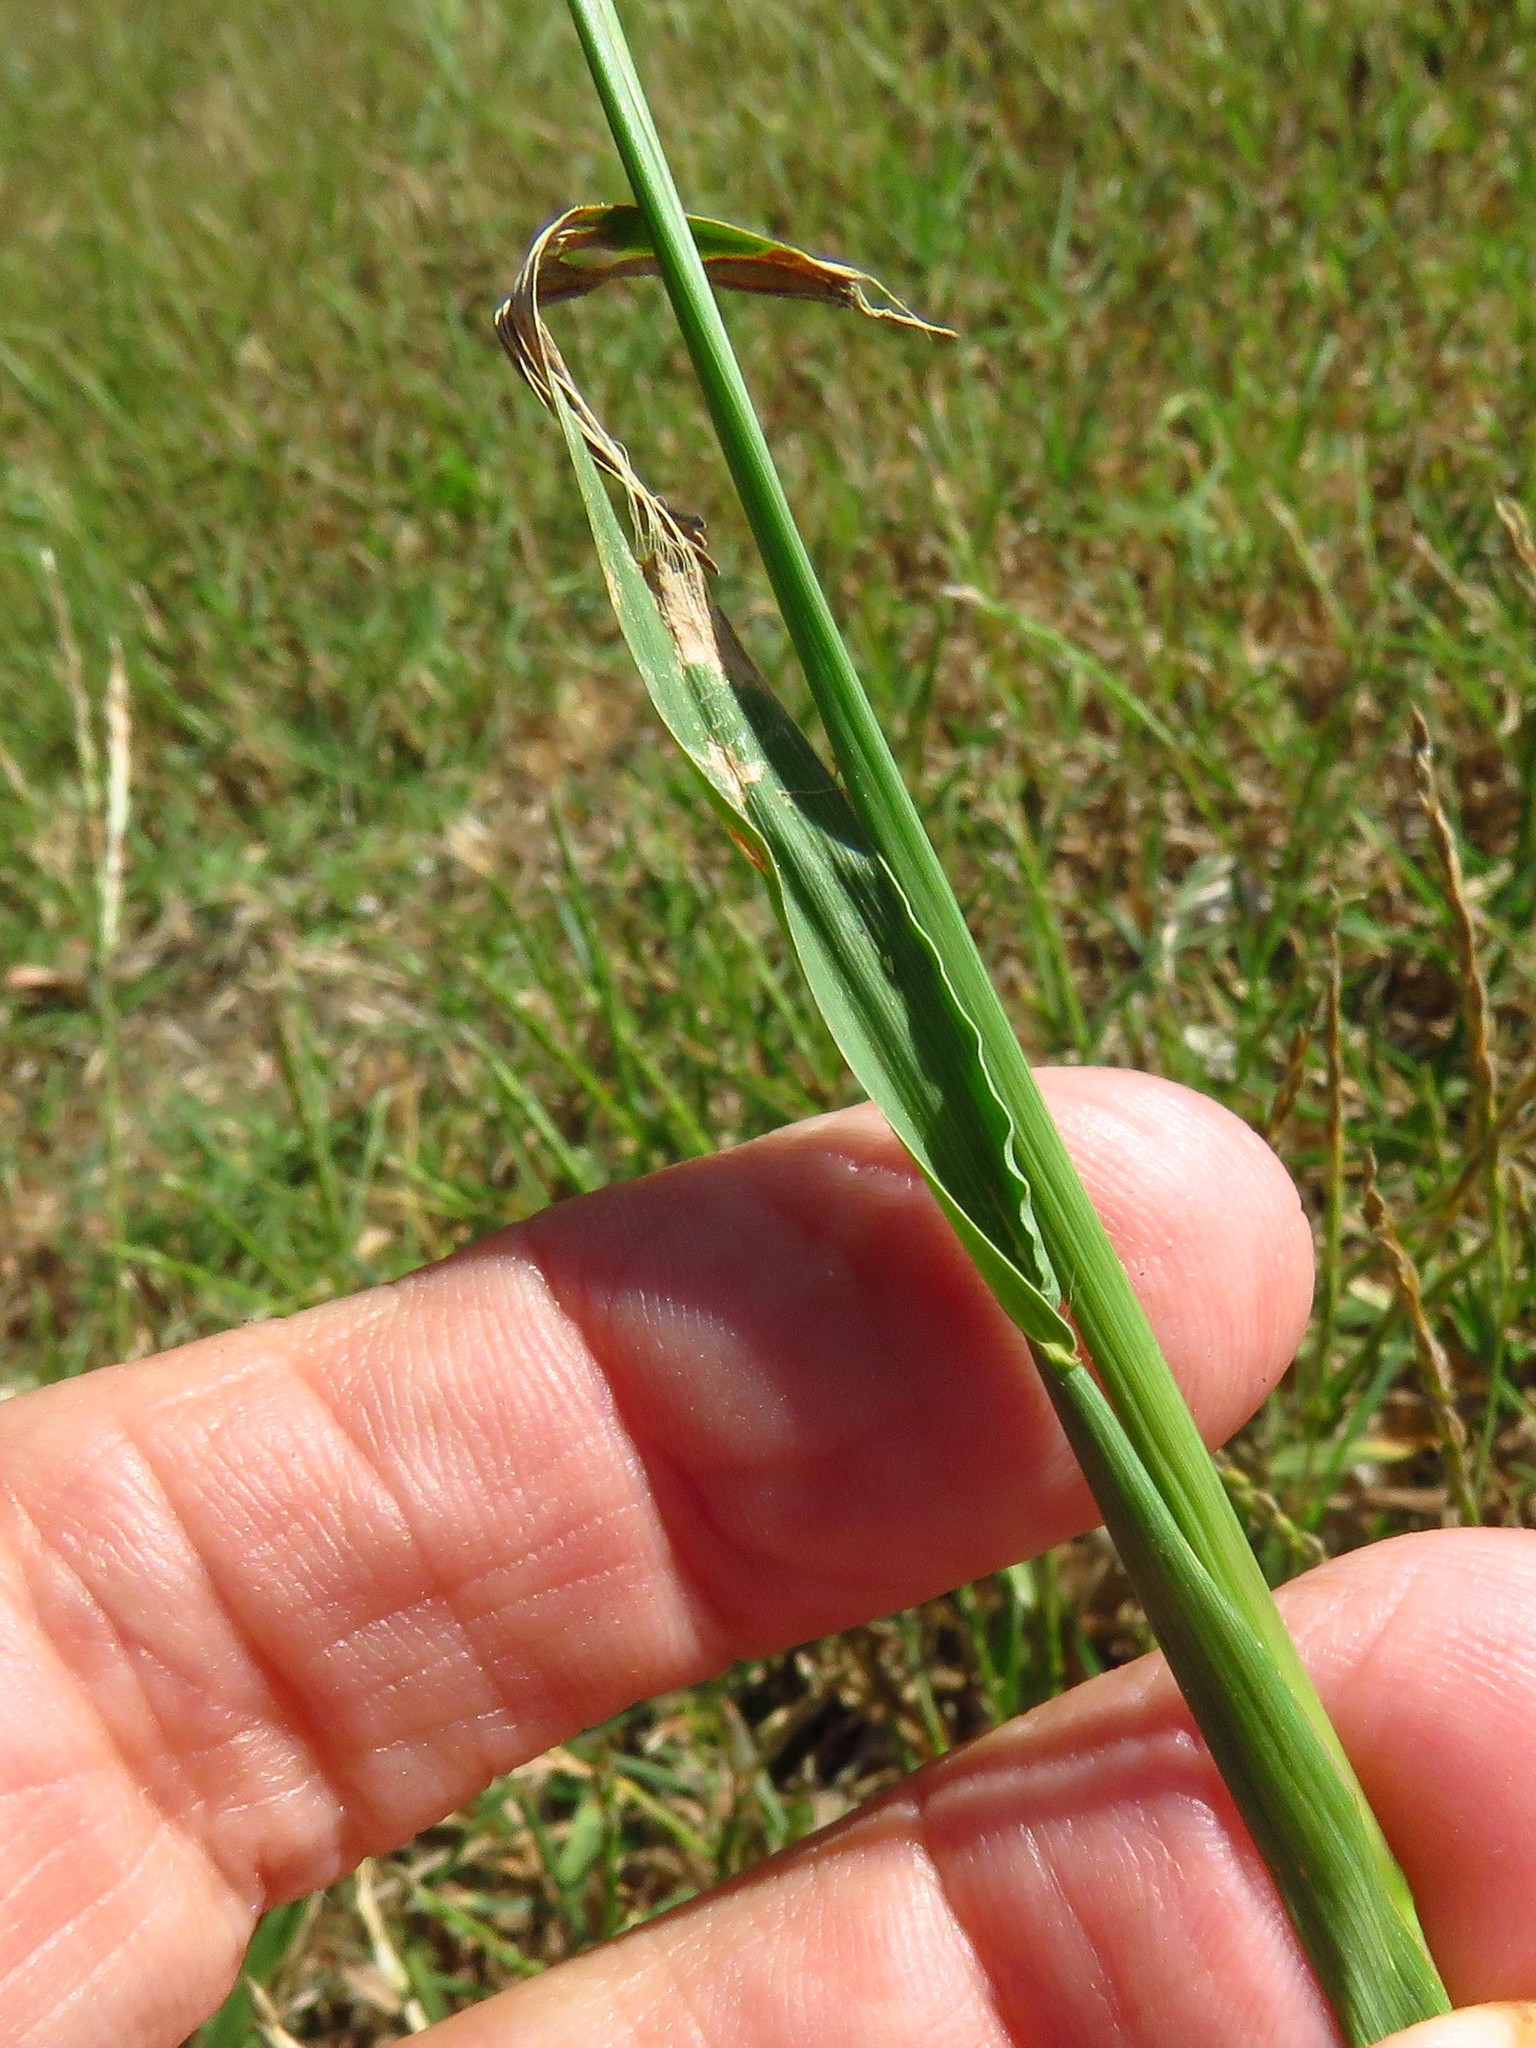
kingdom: Plantae
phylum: Tracheophyta
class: Liliopsida
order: Poales
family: Poaceae
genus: Paspalum
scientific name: Paspalum dilatatum
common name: Dallisgrass
